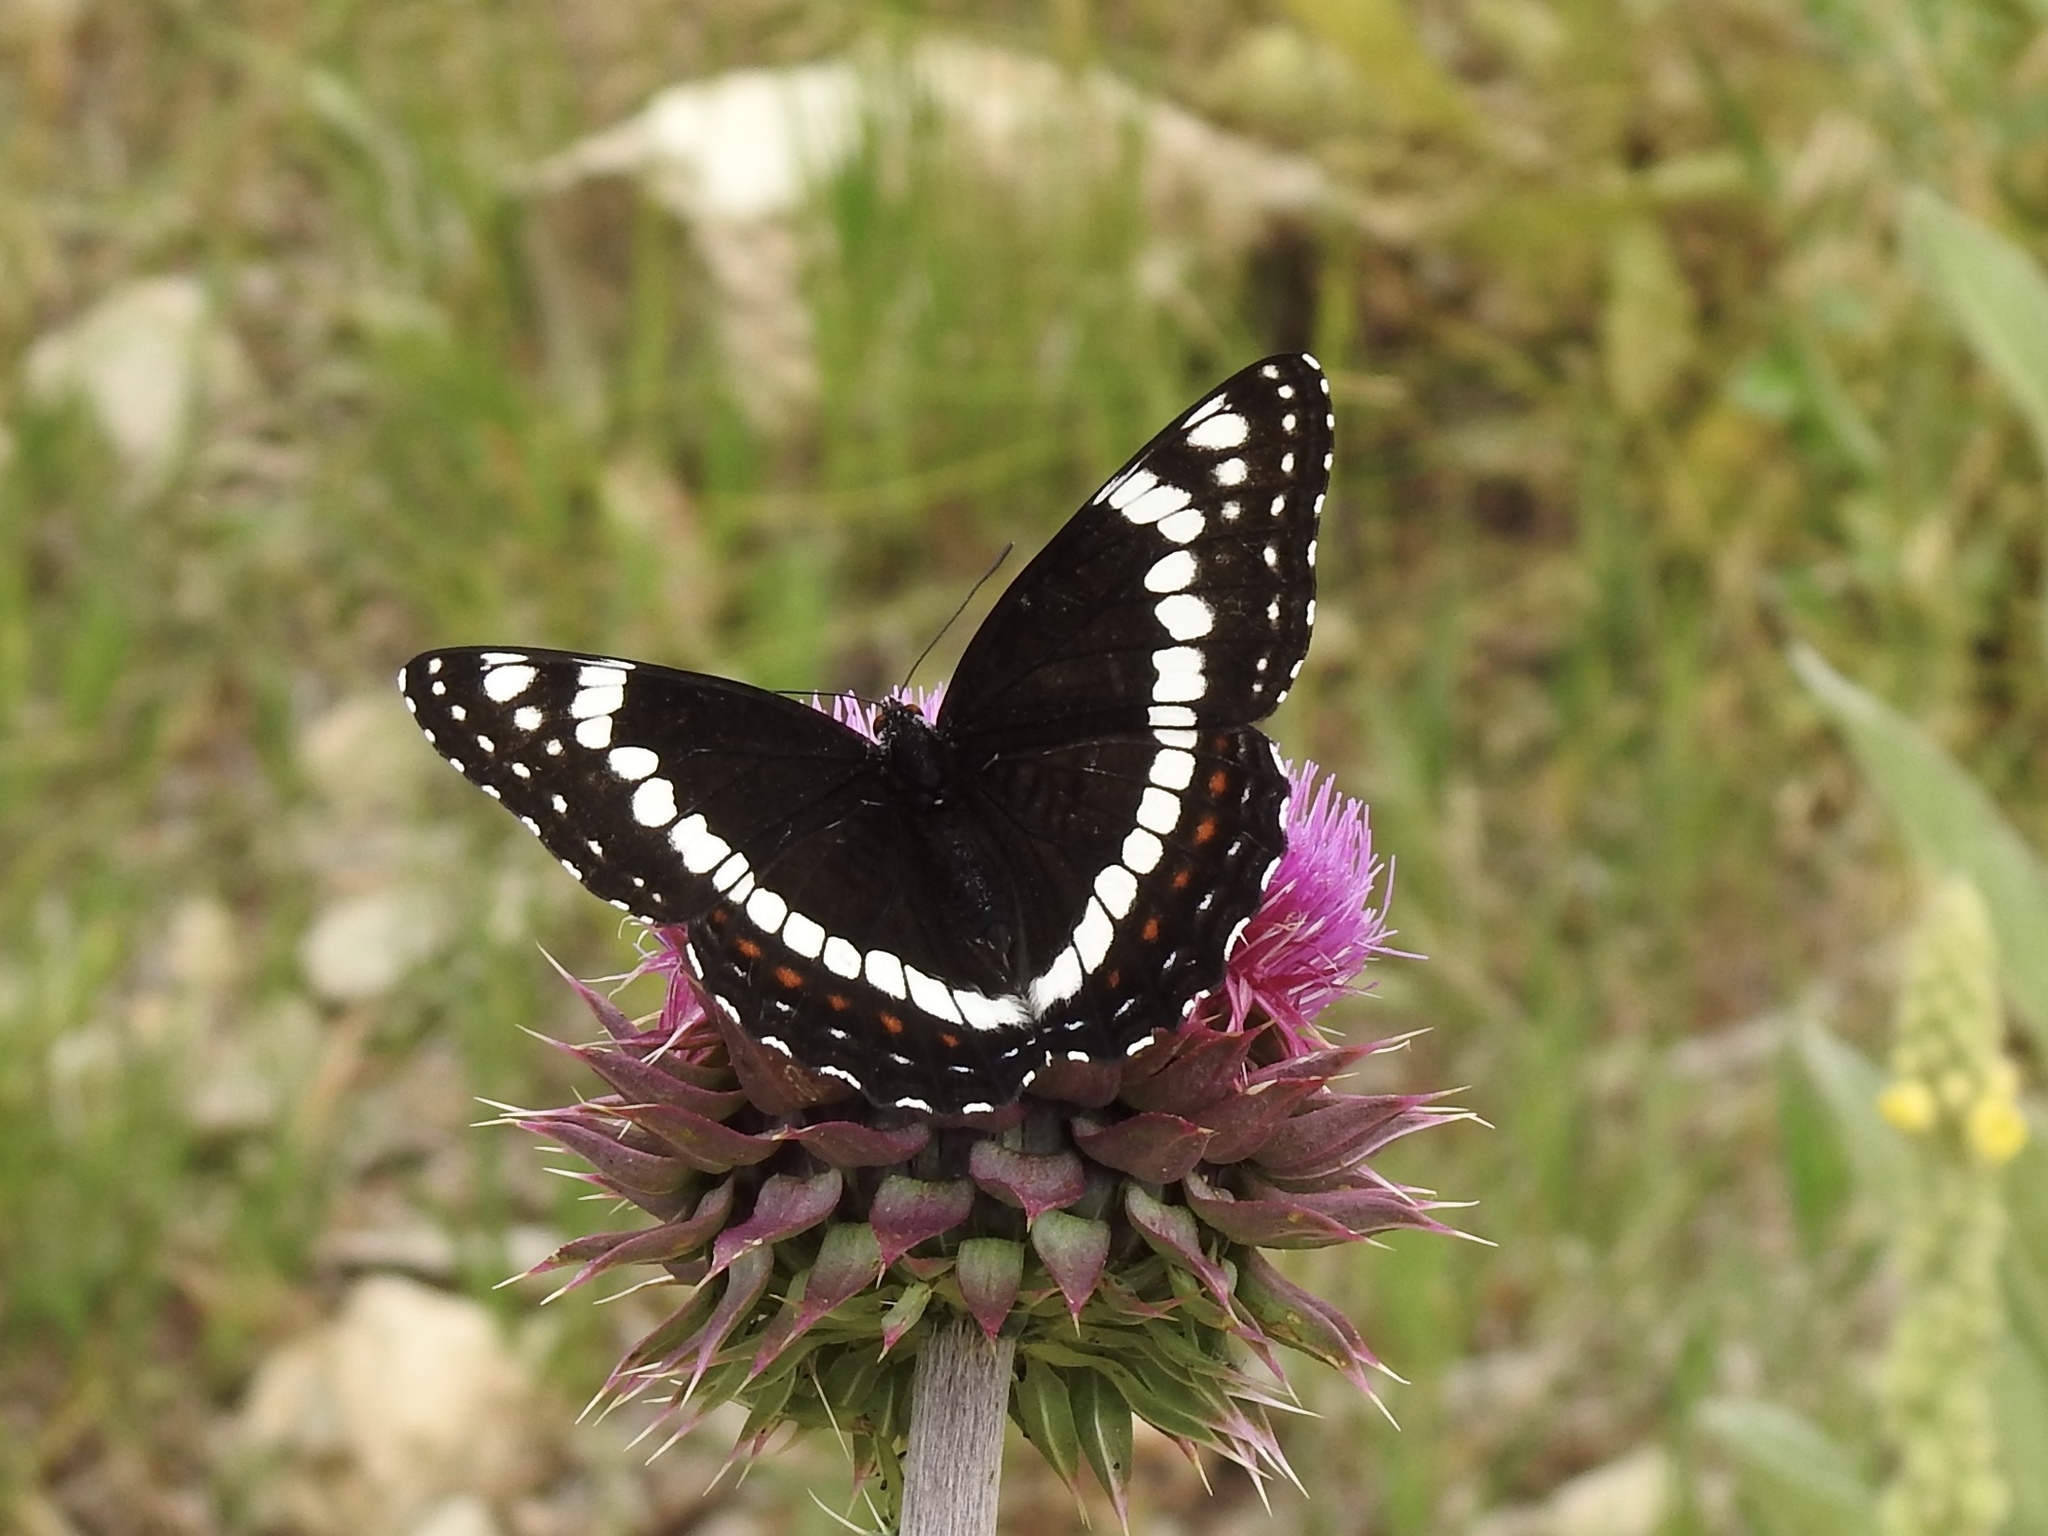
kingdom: Animalia
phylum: Arthropoda
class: Insecta
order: Lepidoptera
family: Nymphalidae
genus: Limenitis
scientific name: Limenitis weidemeyerii
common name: Weidemeyer's admiral
